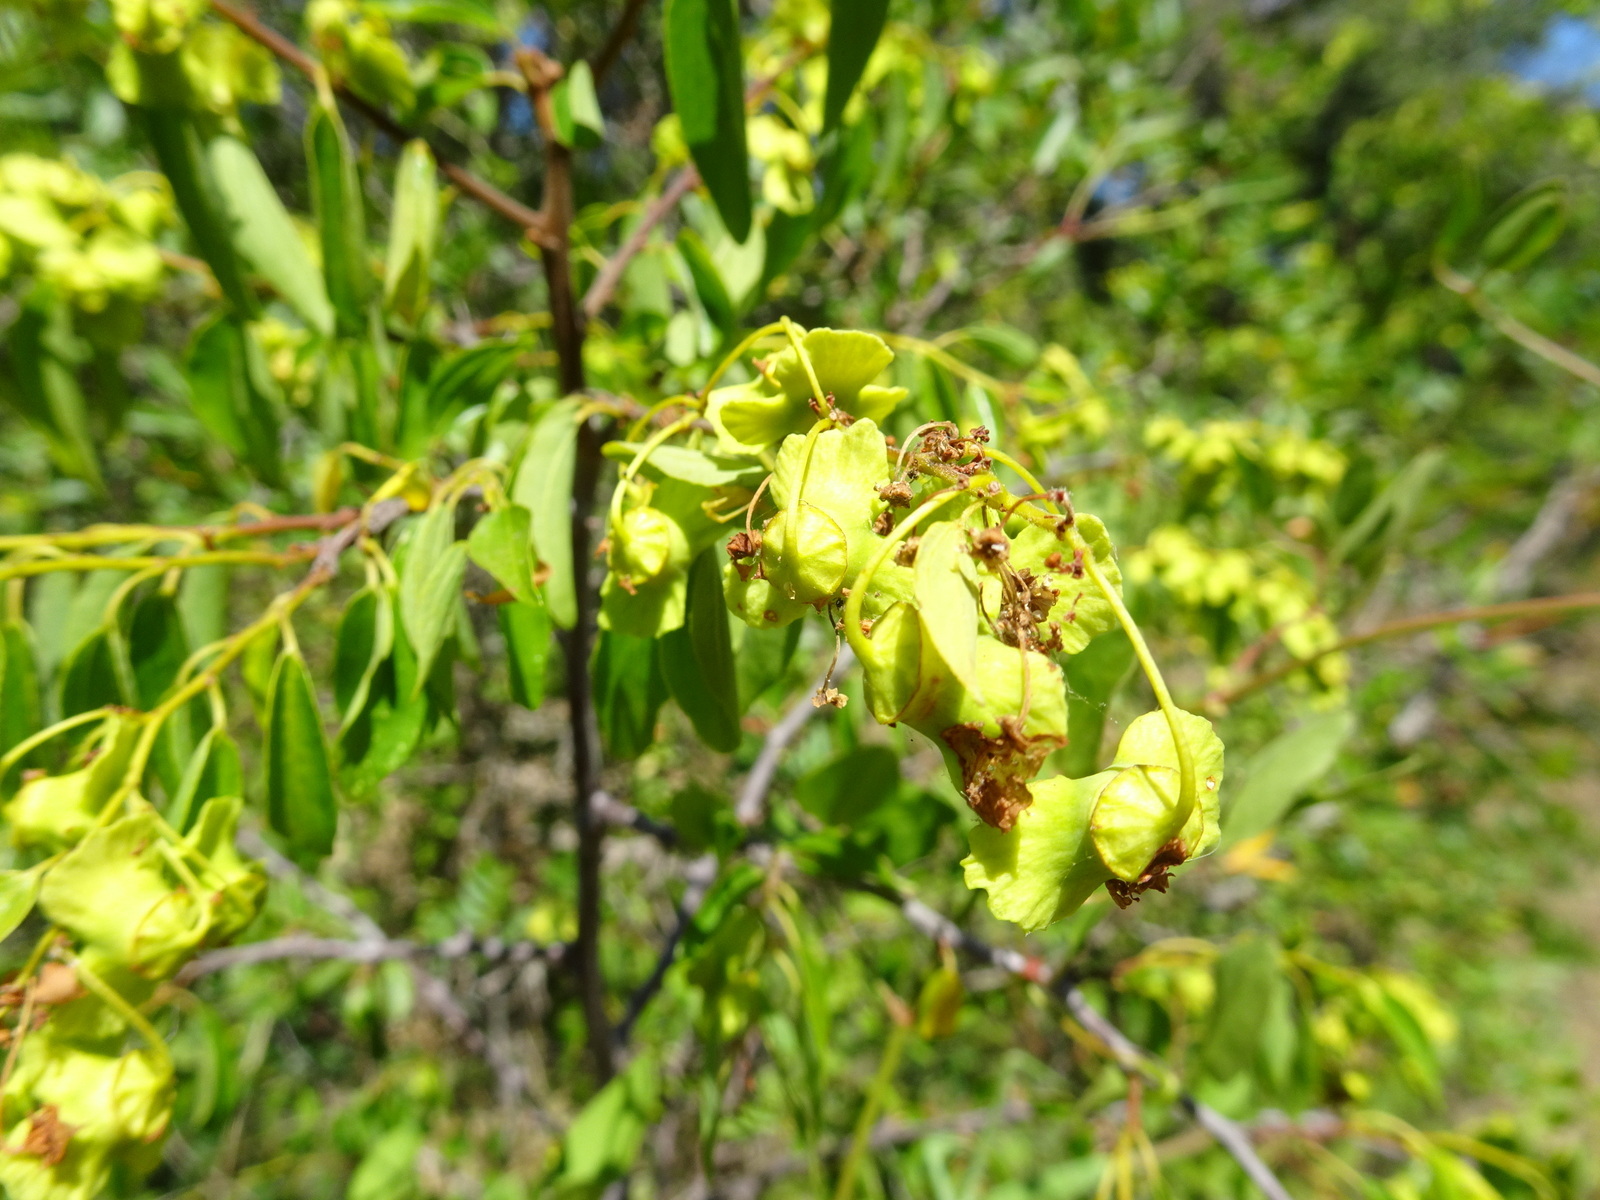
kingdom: Plantae
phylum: Tracheophyta
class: Magnoliopsida
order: Rosales
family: Rhamnaceae
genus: Paliurus
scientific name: Paliurus spina-christi
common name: Jeruselem thorn
